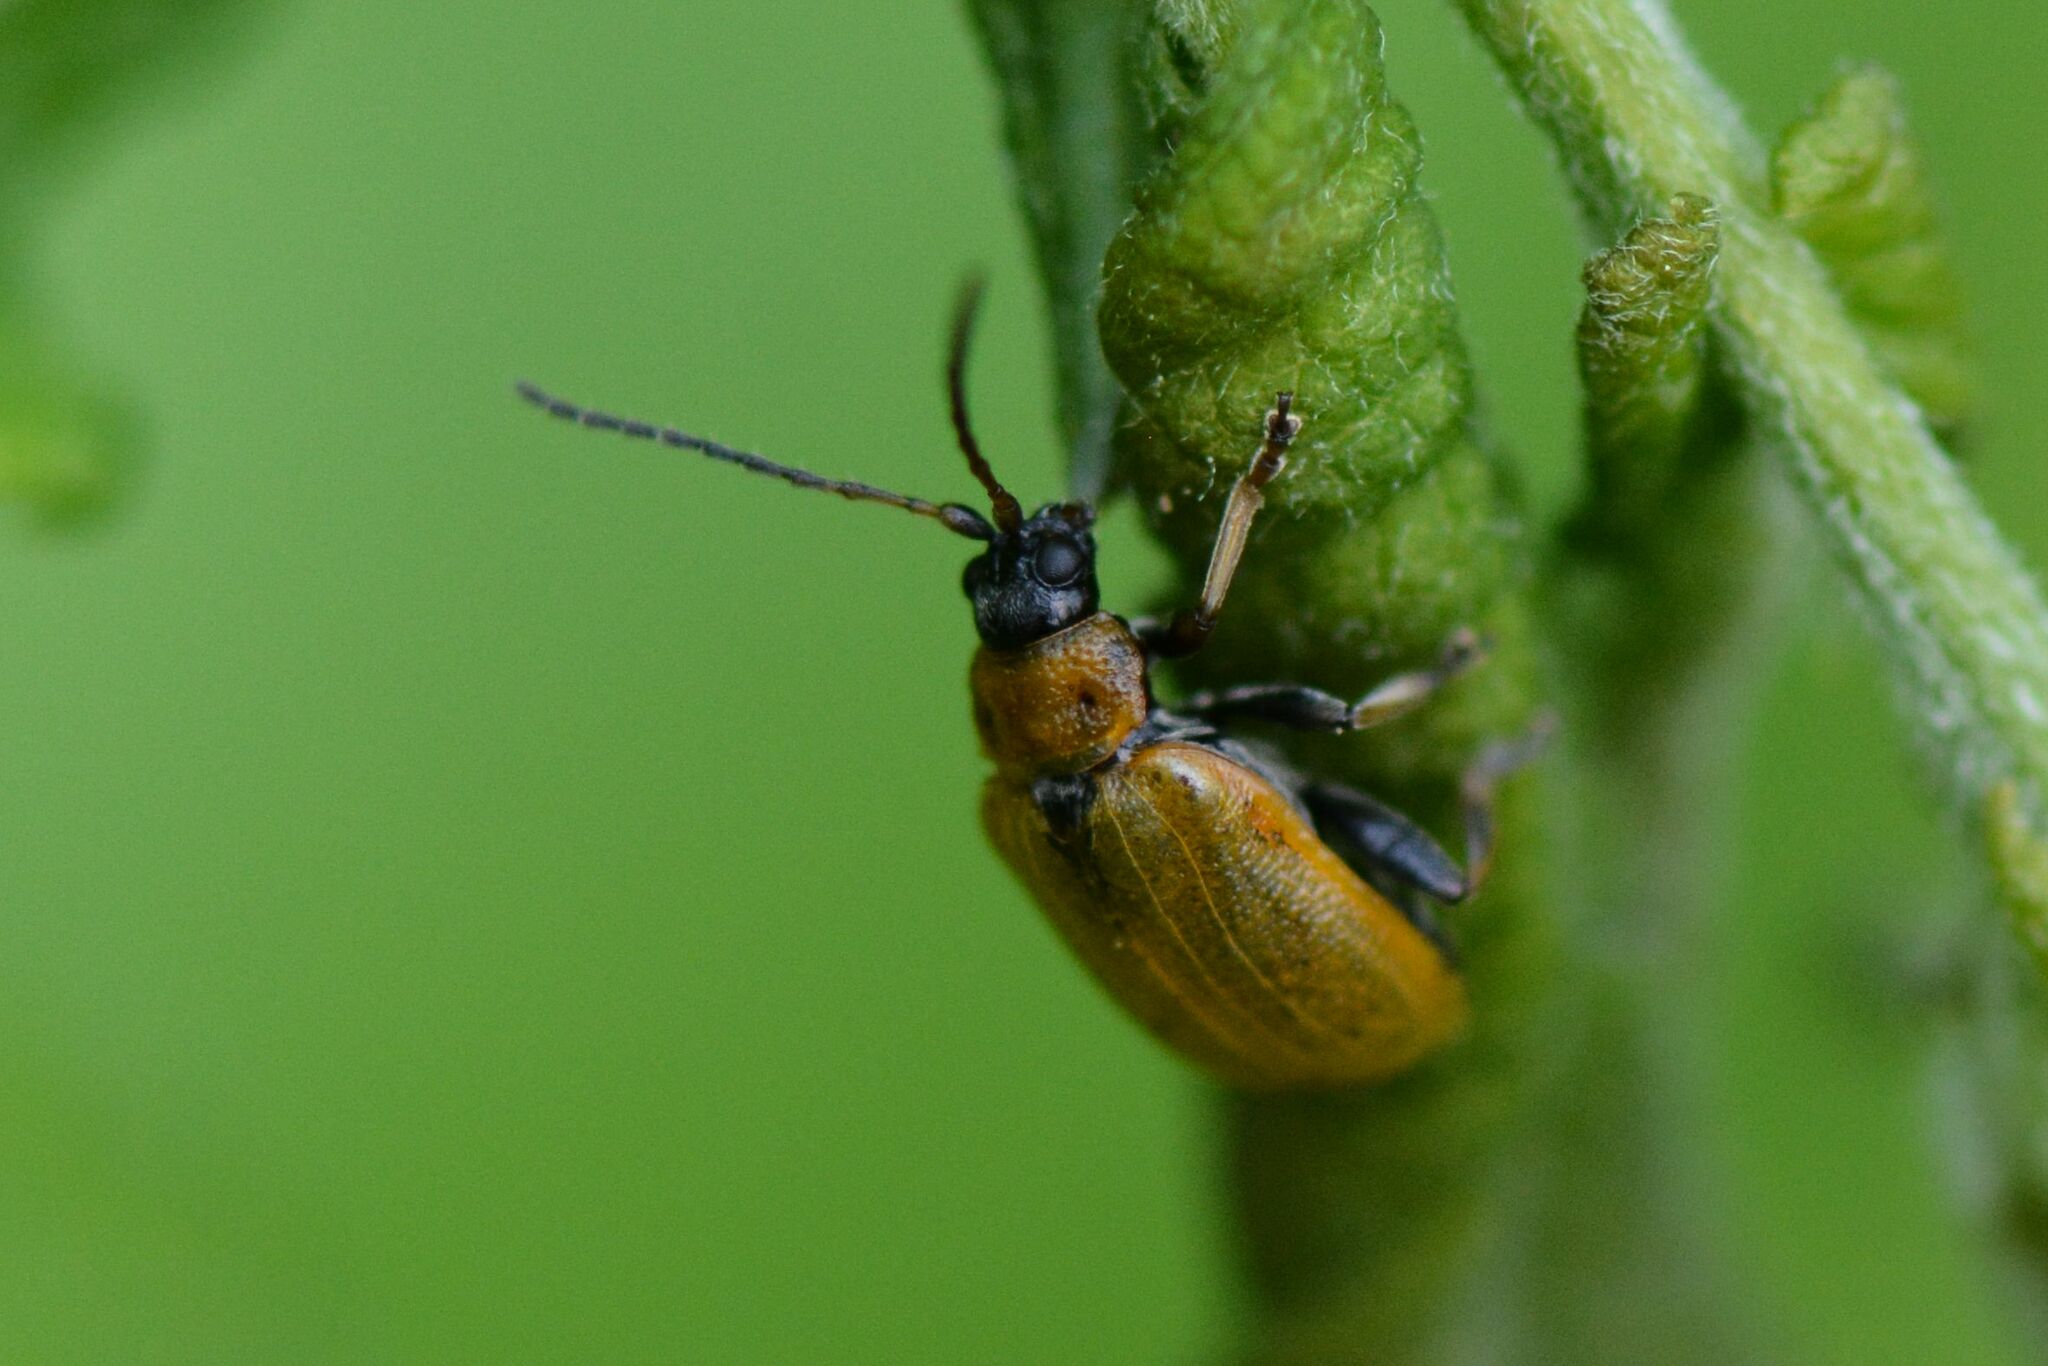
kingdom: Animalia
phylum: Arthropoda
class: Insecta
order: Coleoptera
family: Chrysomelidae
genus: Lochmaea
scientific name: Lochmaea caprea
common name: Willow leaf beetle
